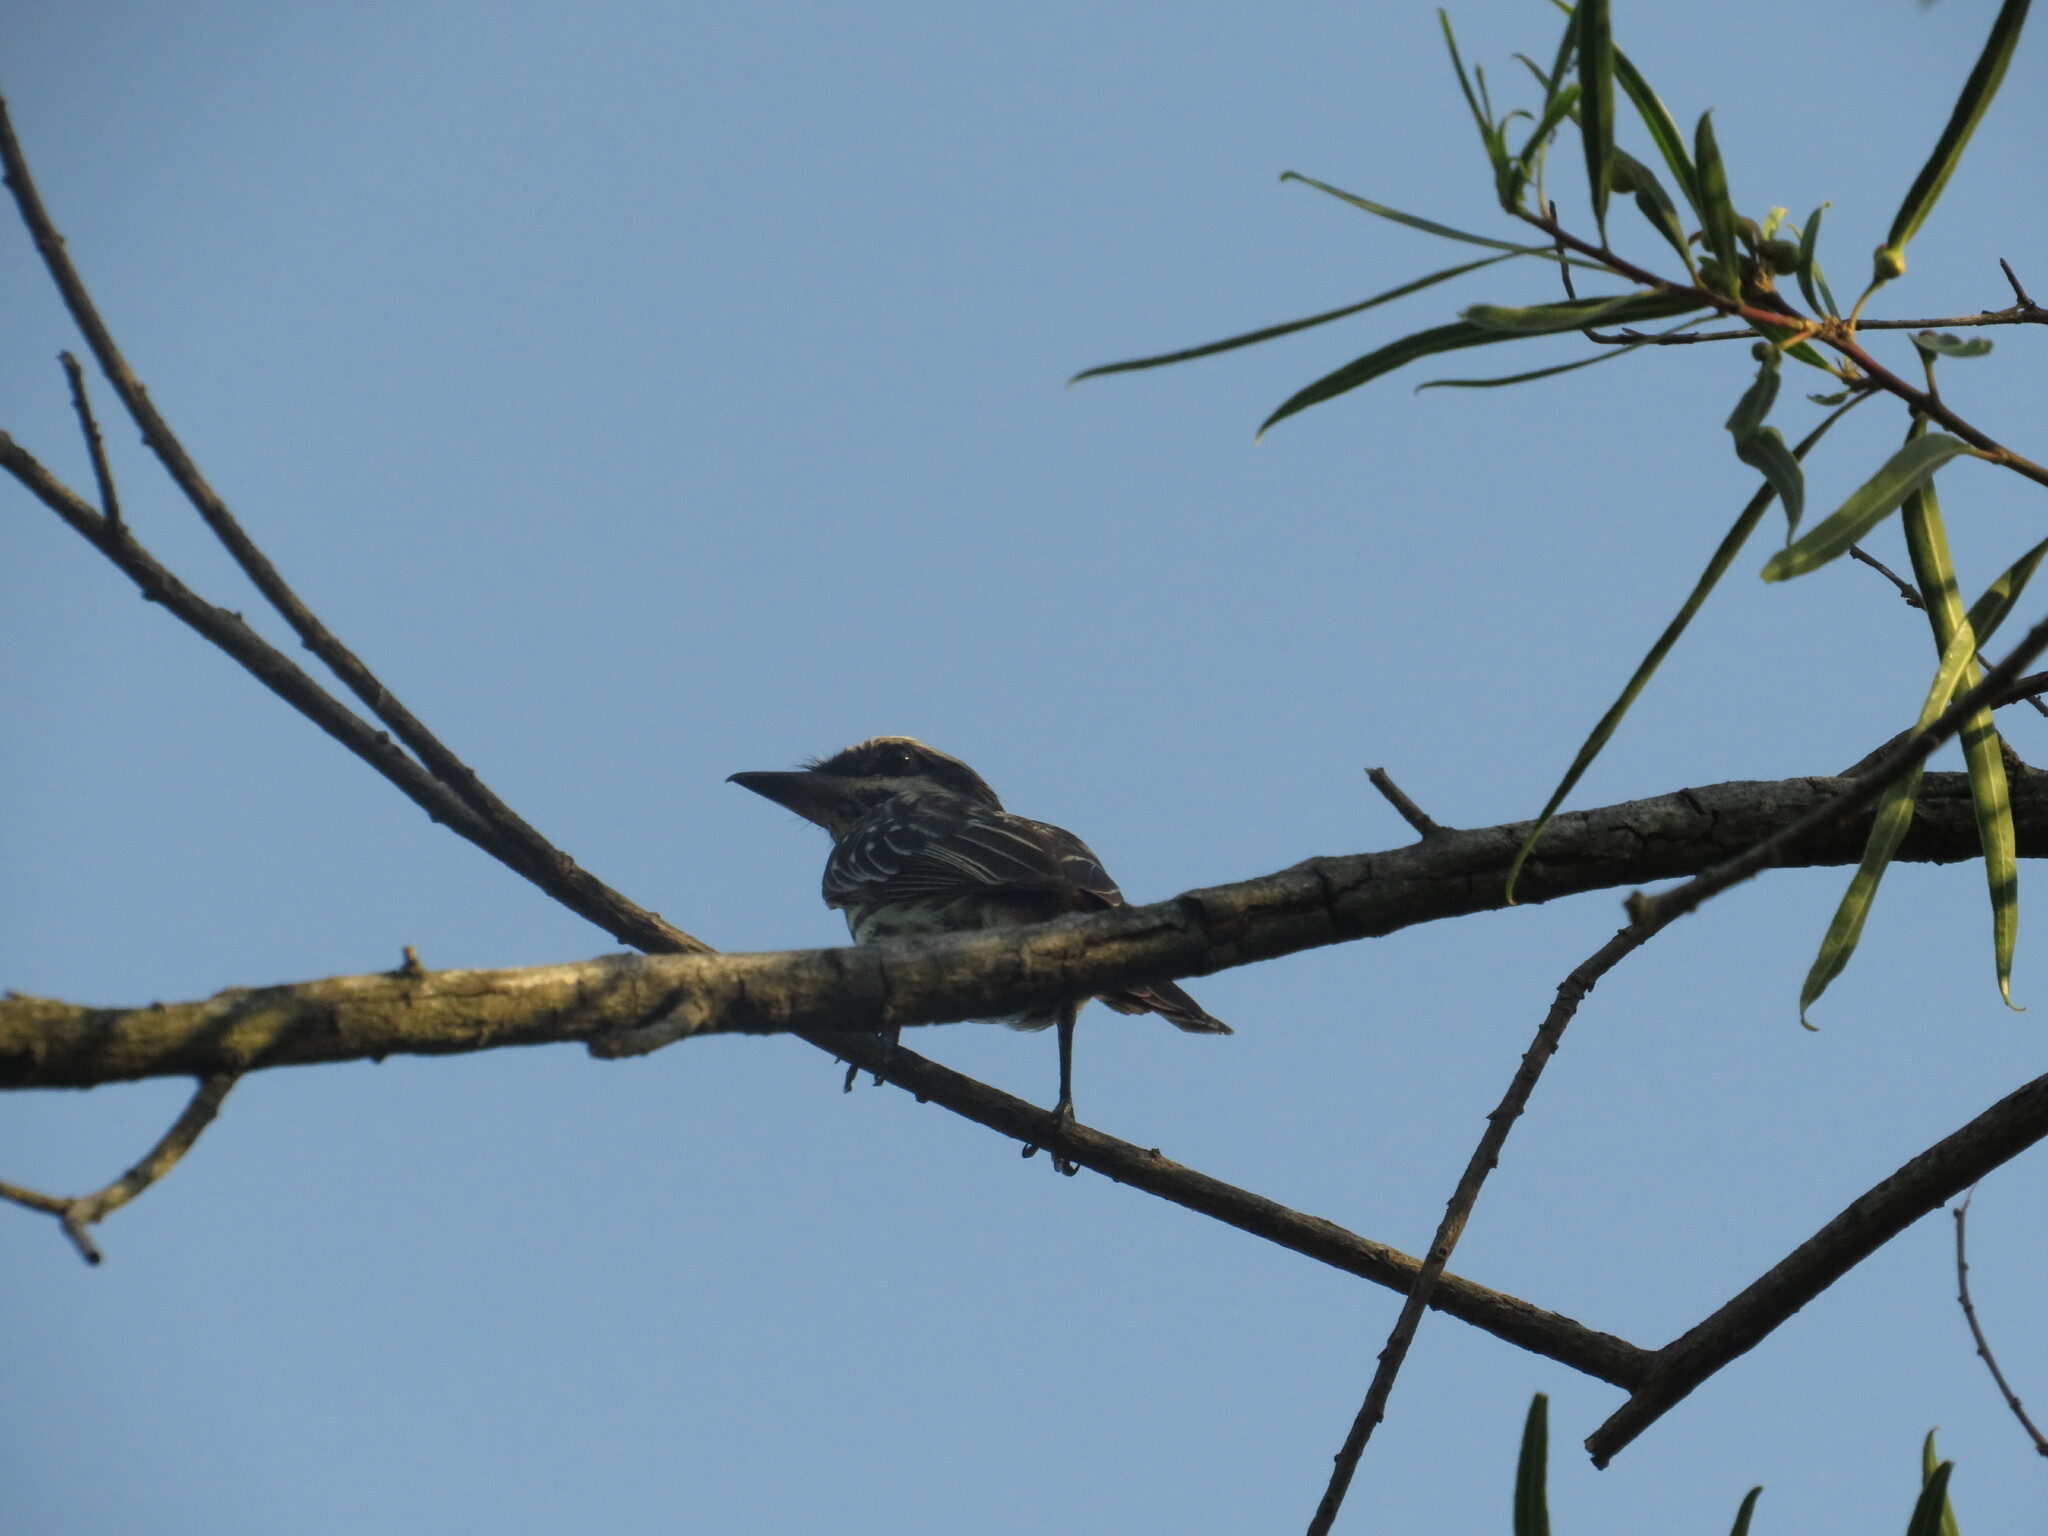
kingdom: Animalia
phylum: Chordata
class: Aves
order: Passeriformes
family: Tyrannidae
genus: Myiodynastes
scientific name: Myiodynastes maculatus
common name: Streaked flycatcher
